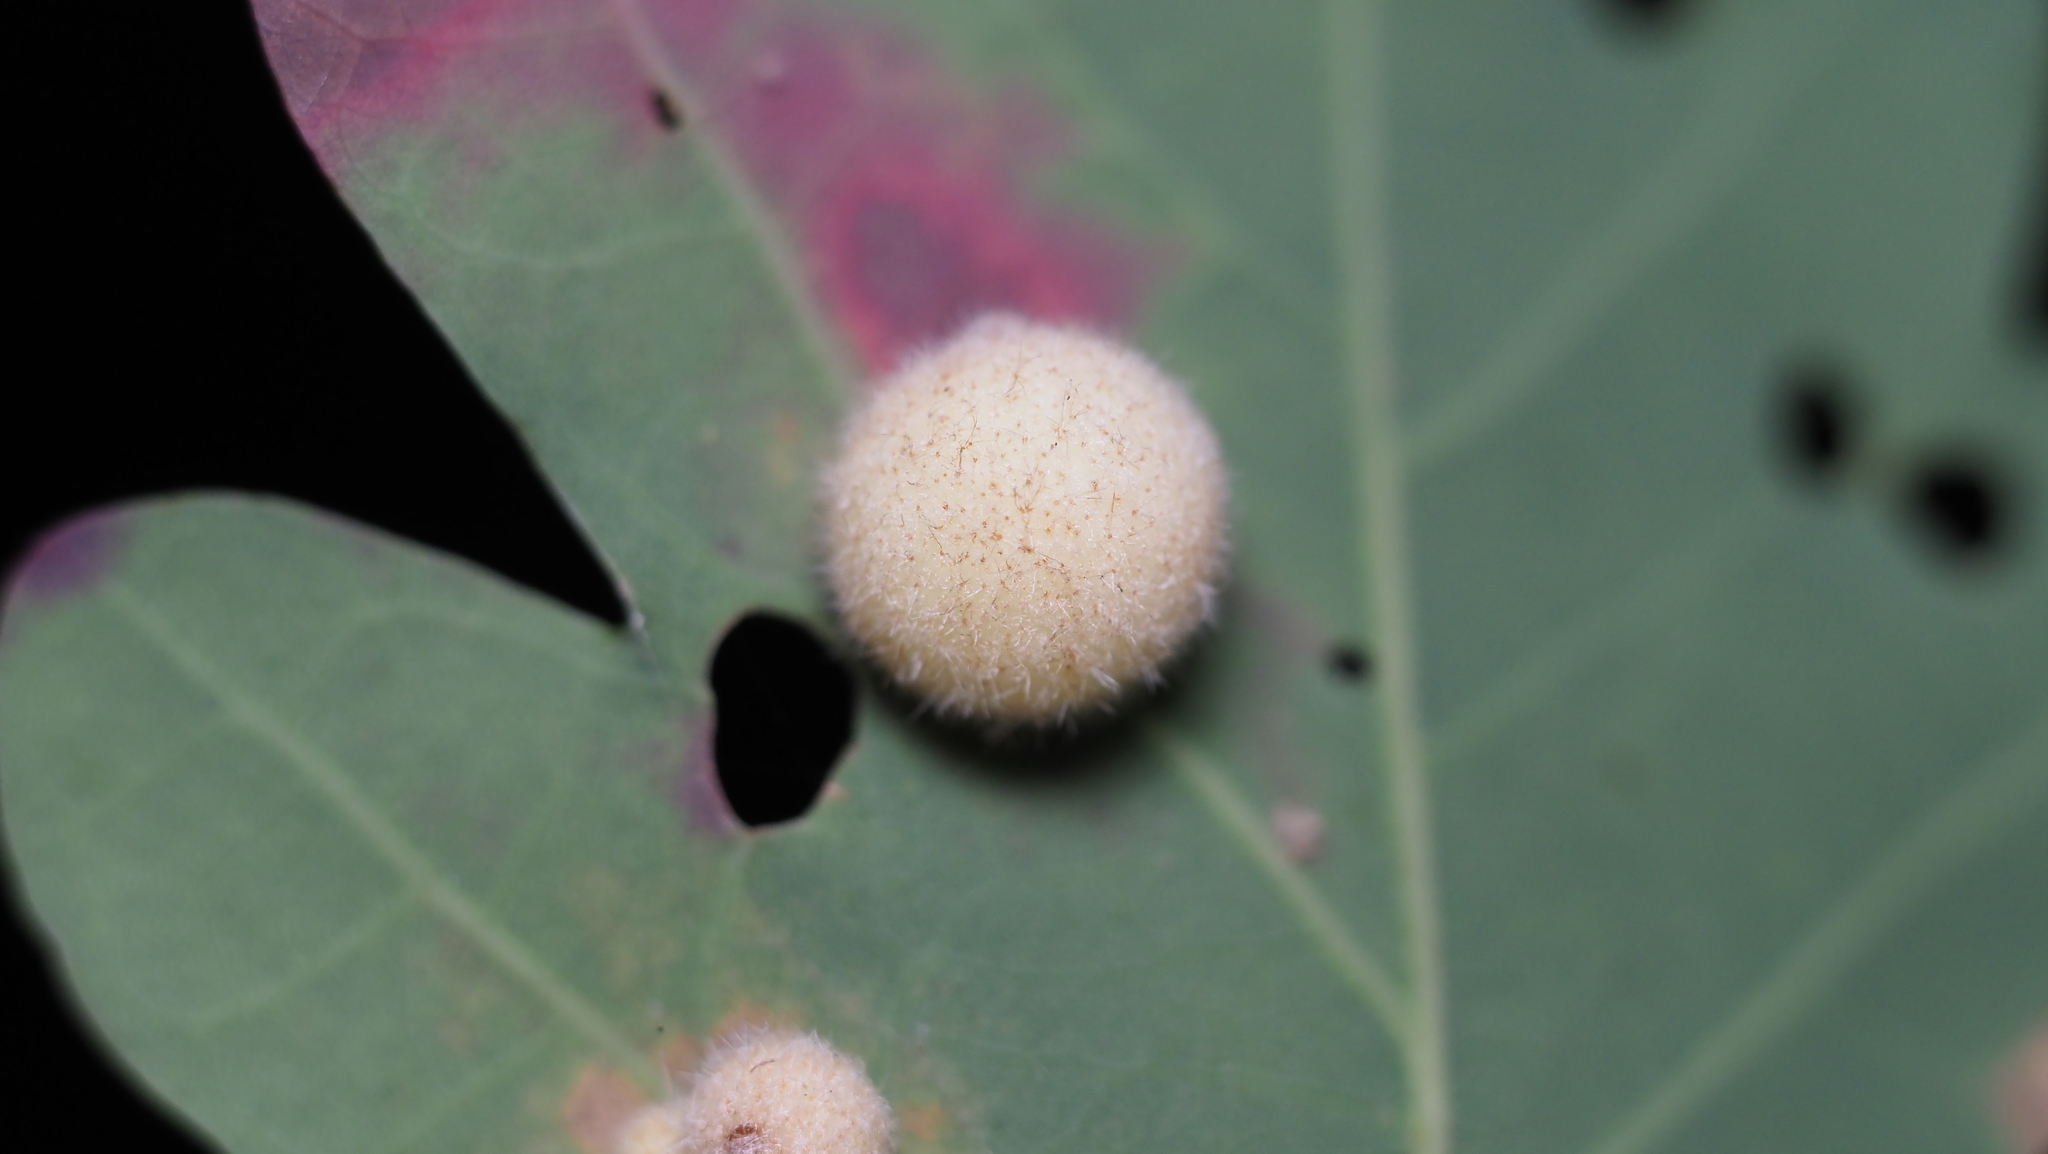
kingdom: Animalia
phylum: Arthropoda
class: Insecta
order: Hymenoptera
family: Cynipidae
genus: Philonix
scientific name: Philonix fulvicollis
